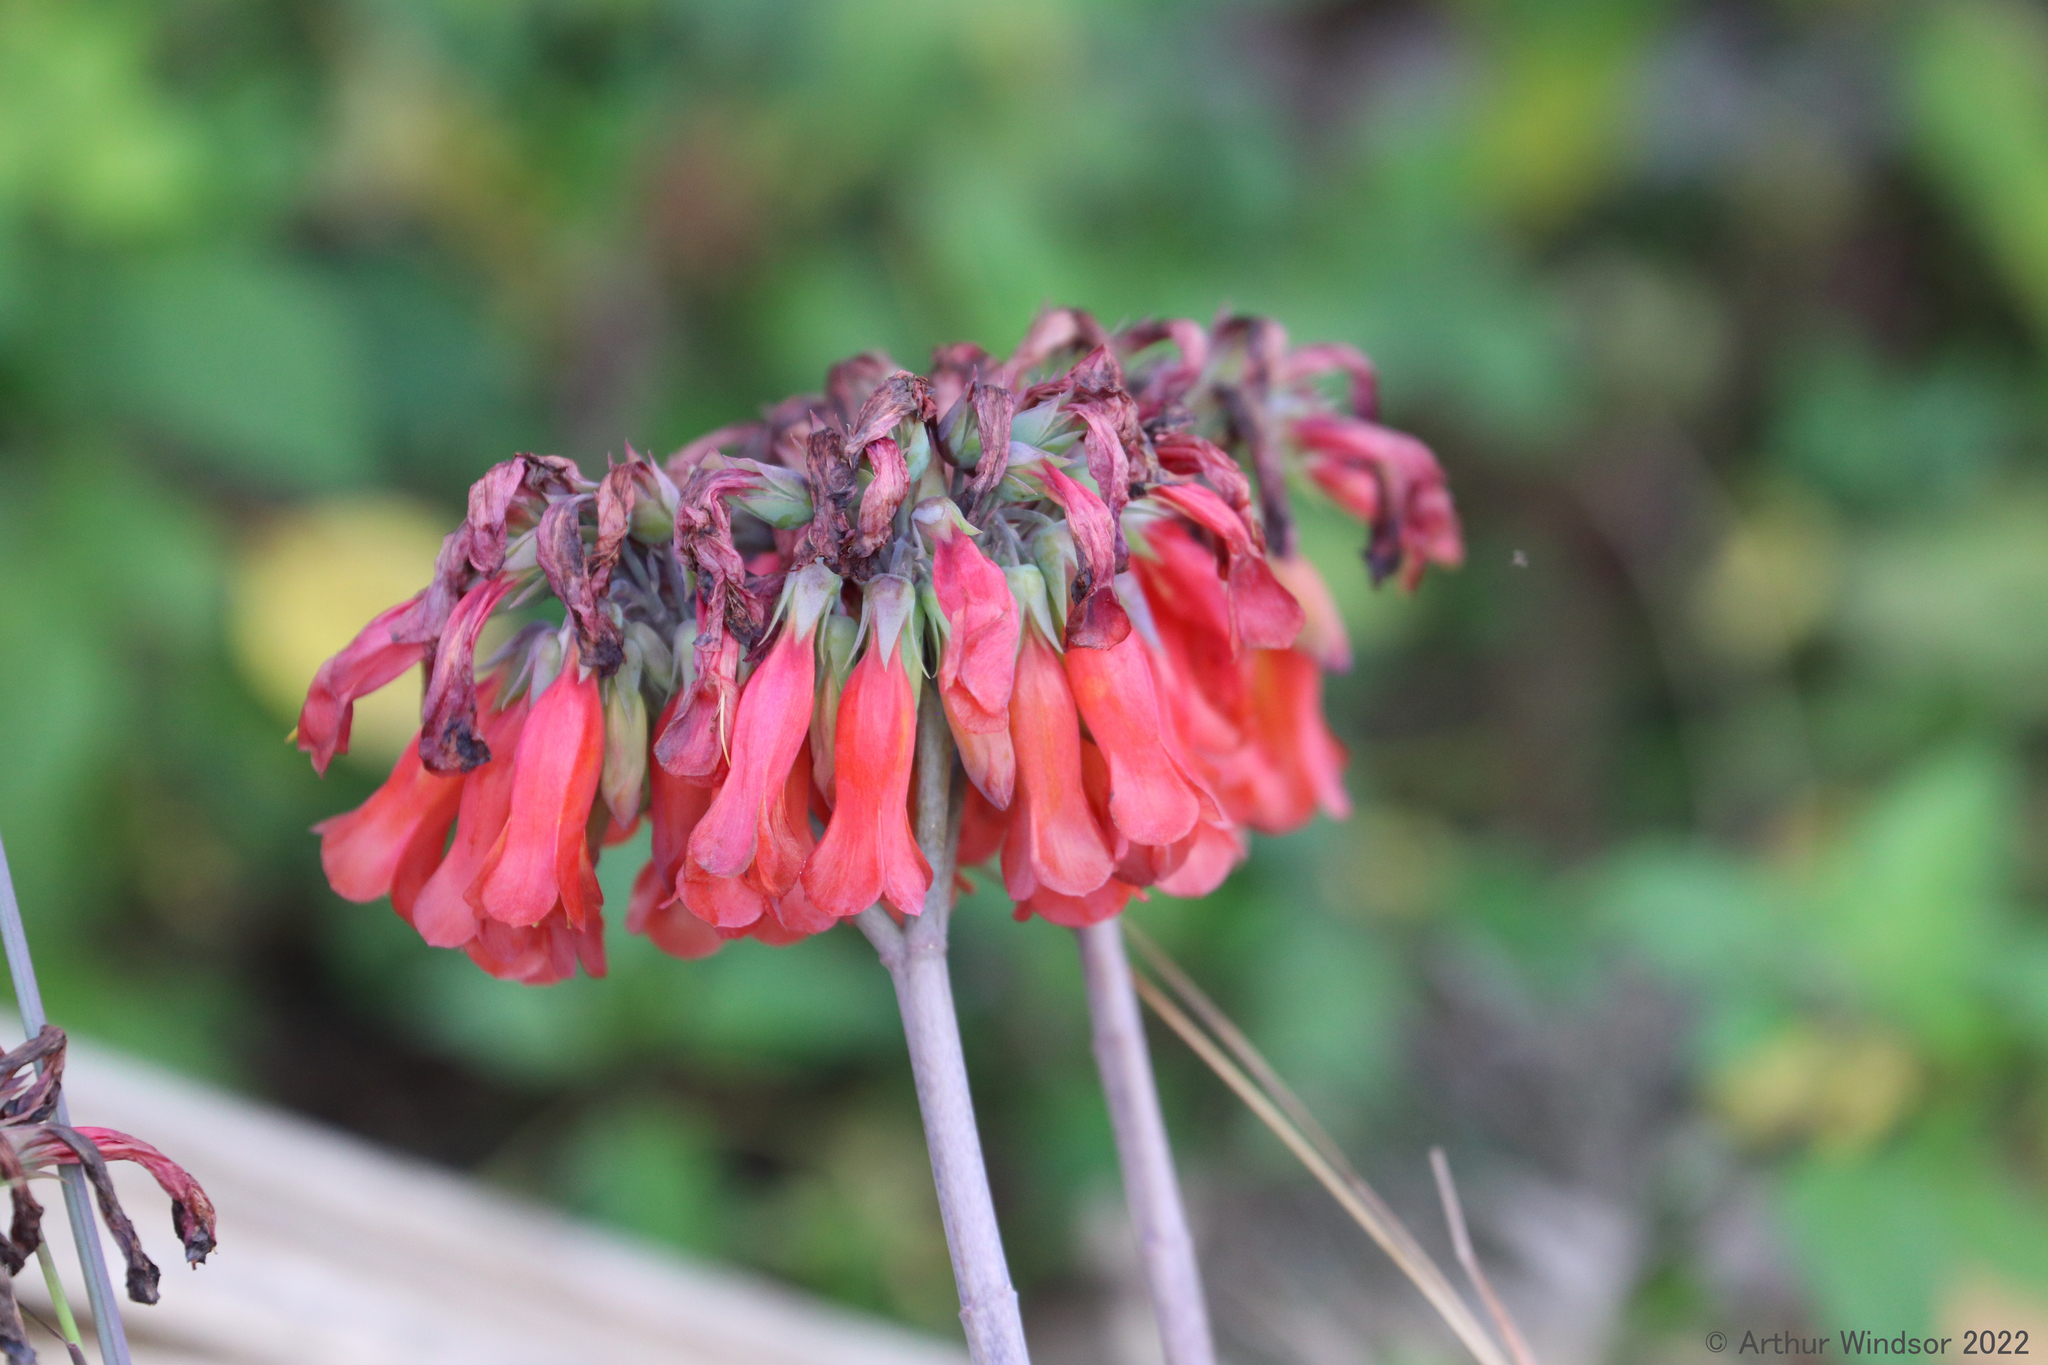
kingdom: Chromista
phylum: Ciliophora
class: Gymnostomatea
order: Spathidiida
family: Spathidiidae
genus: Bryophyllum
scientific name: Bryophyllum
